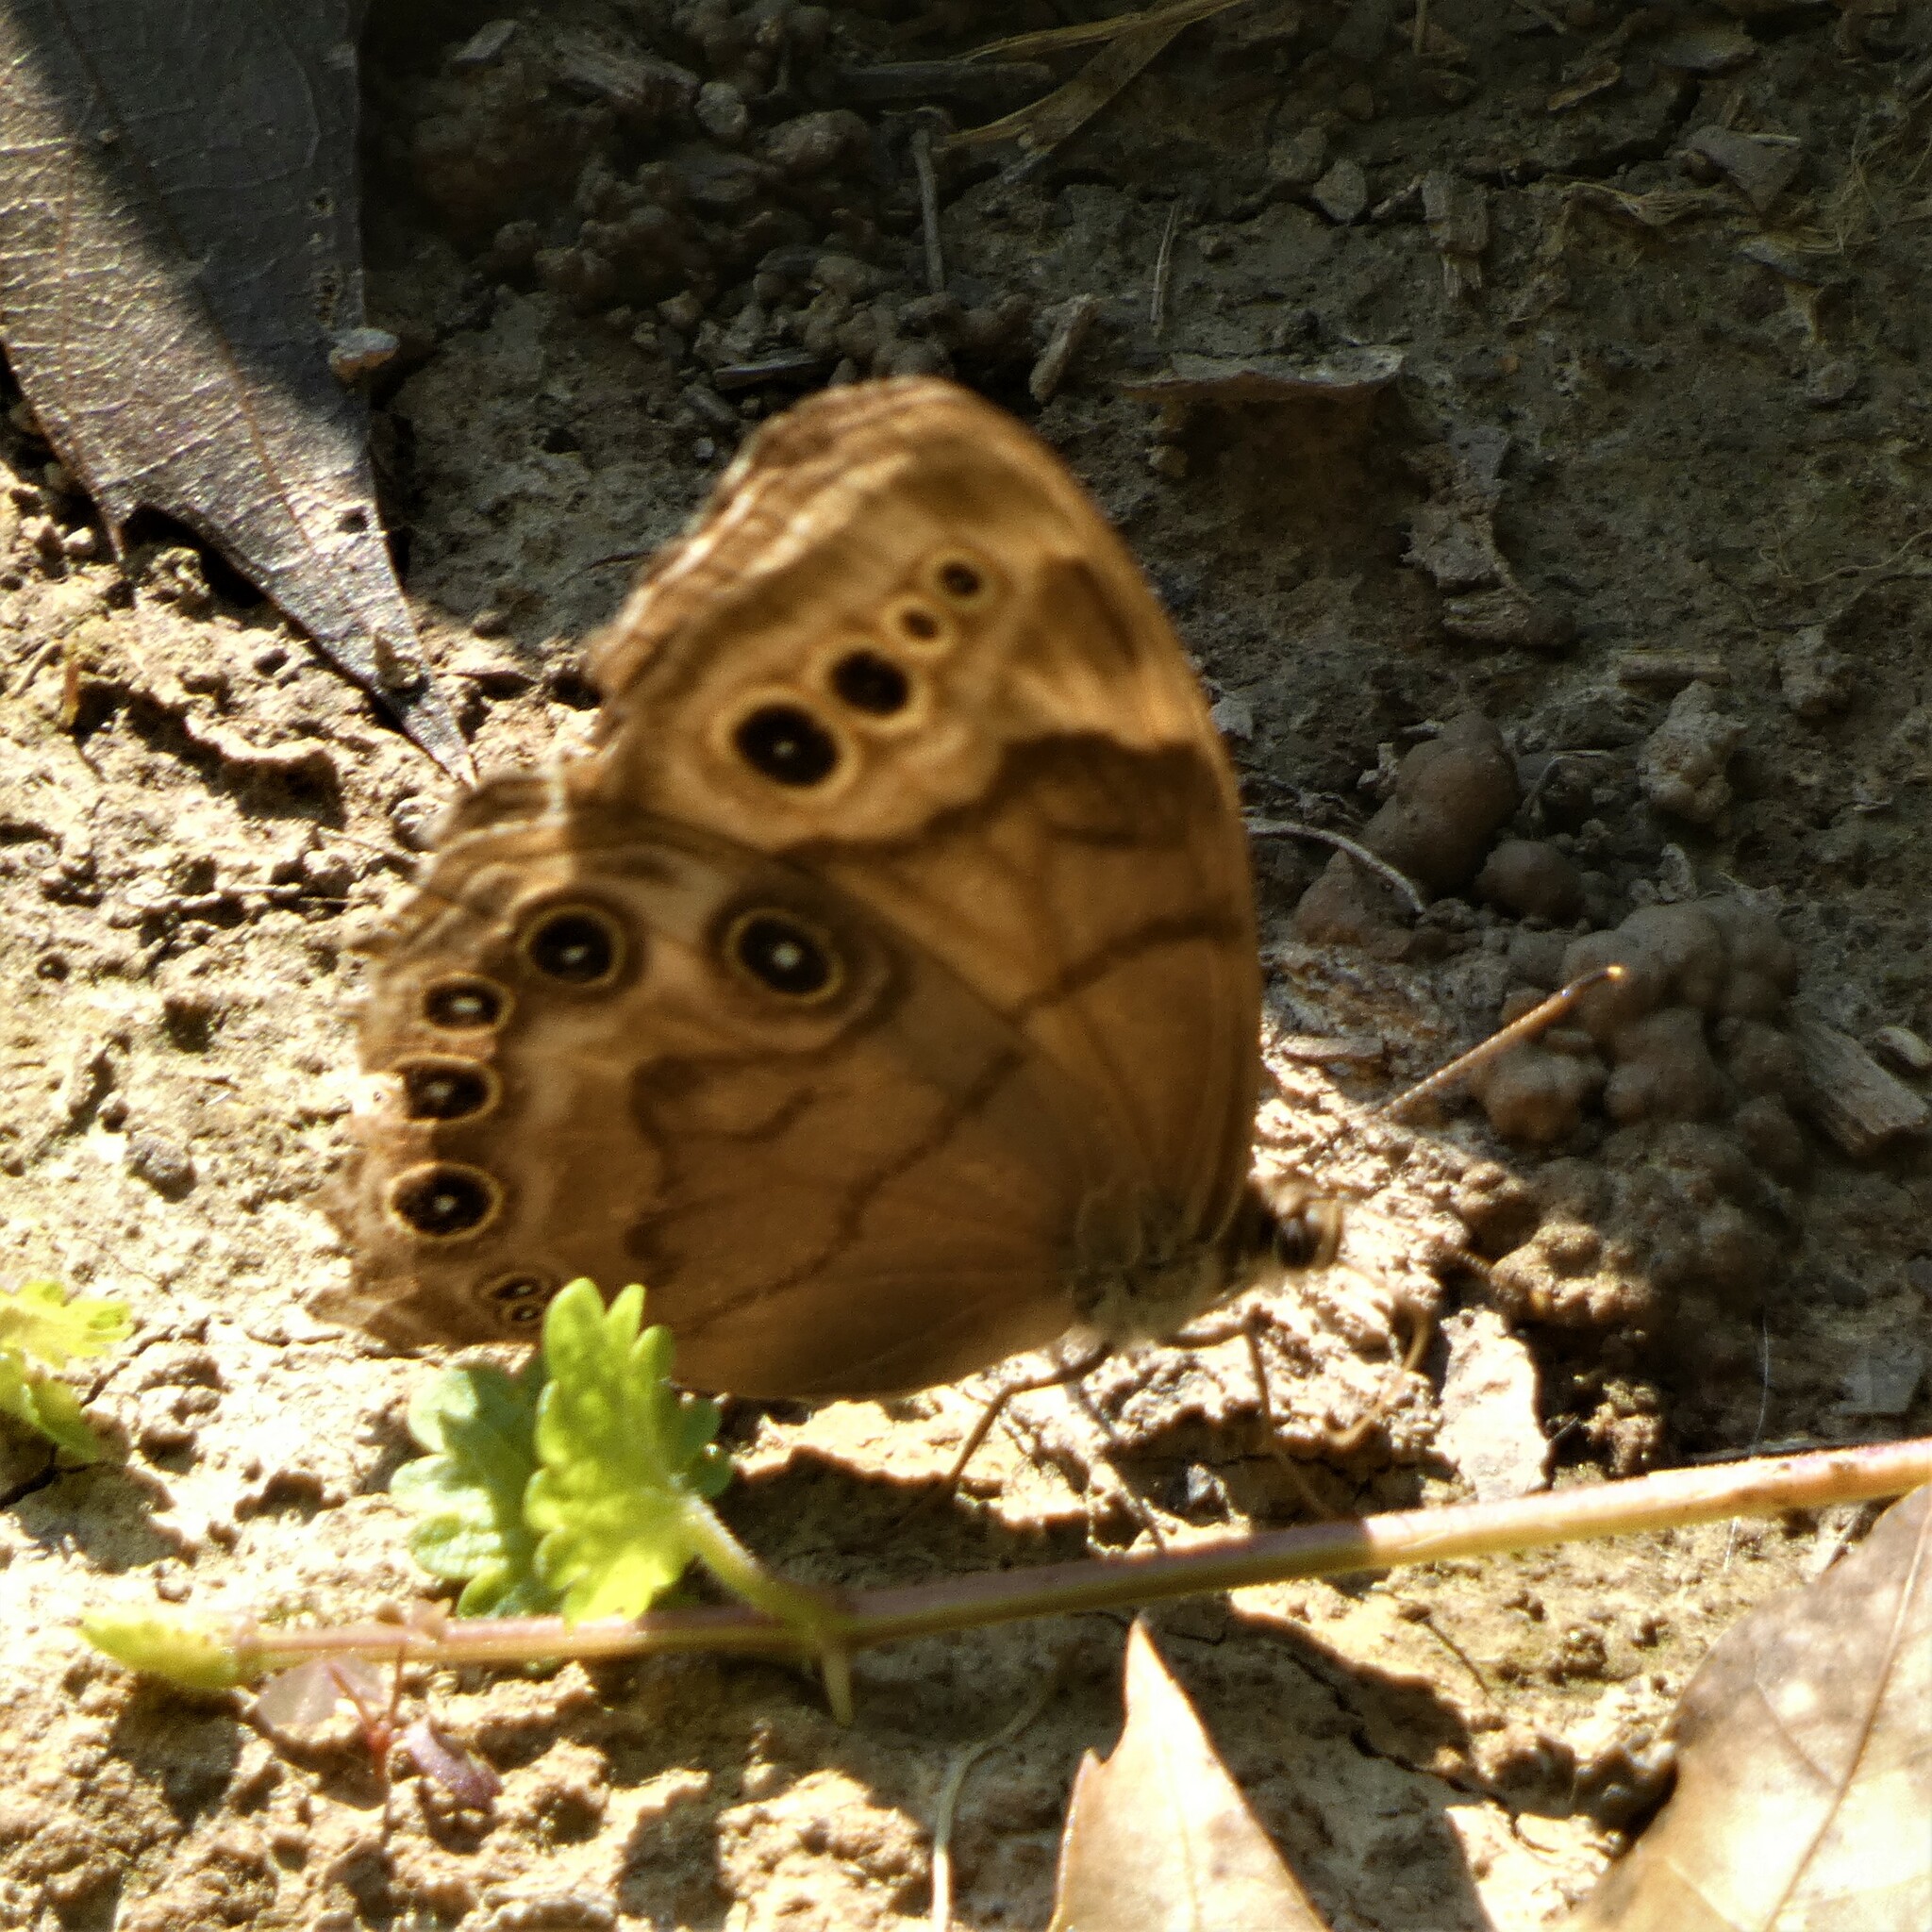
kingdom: Animalia
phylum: Arthropoda
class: Insecta
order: Lepidoptera
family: Nymphalidae
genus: Lethe
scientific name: Lethe anthedon
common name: Northern pearly-eye
